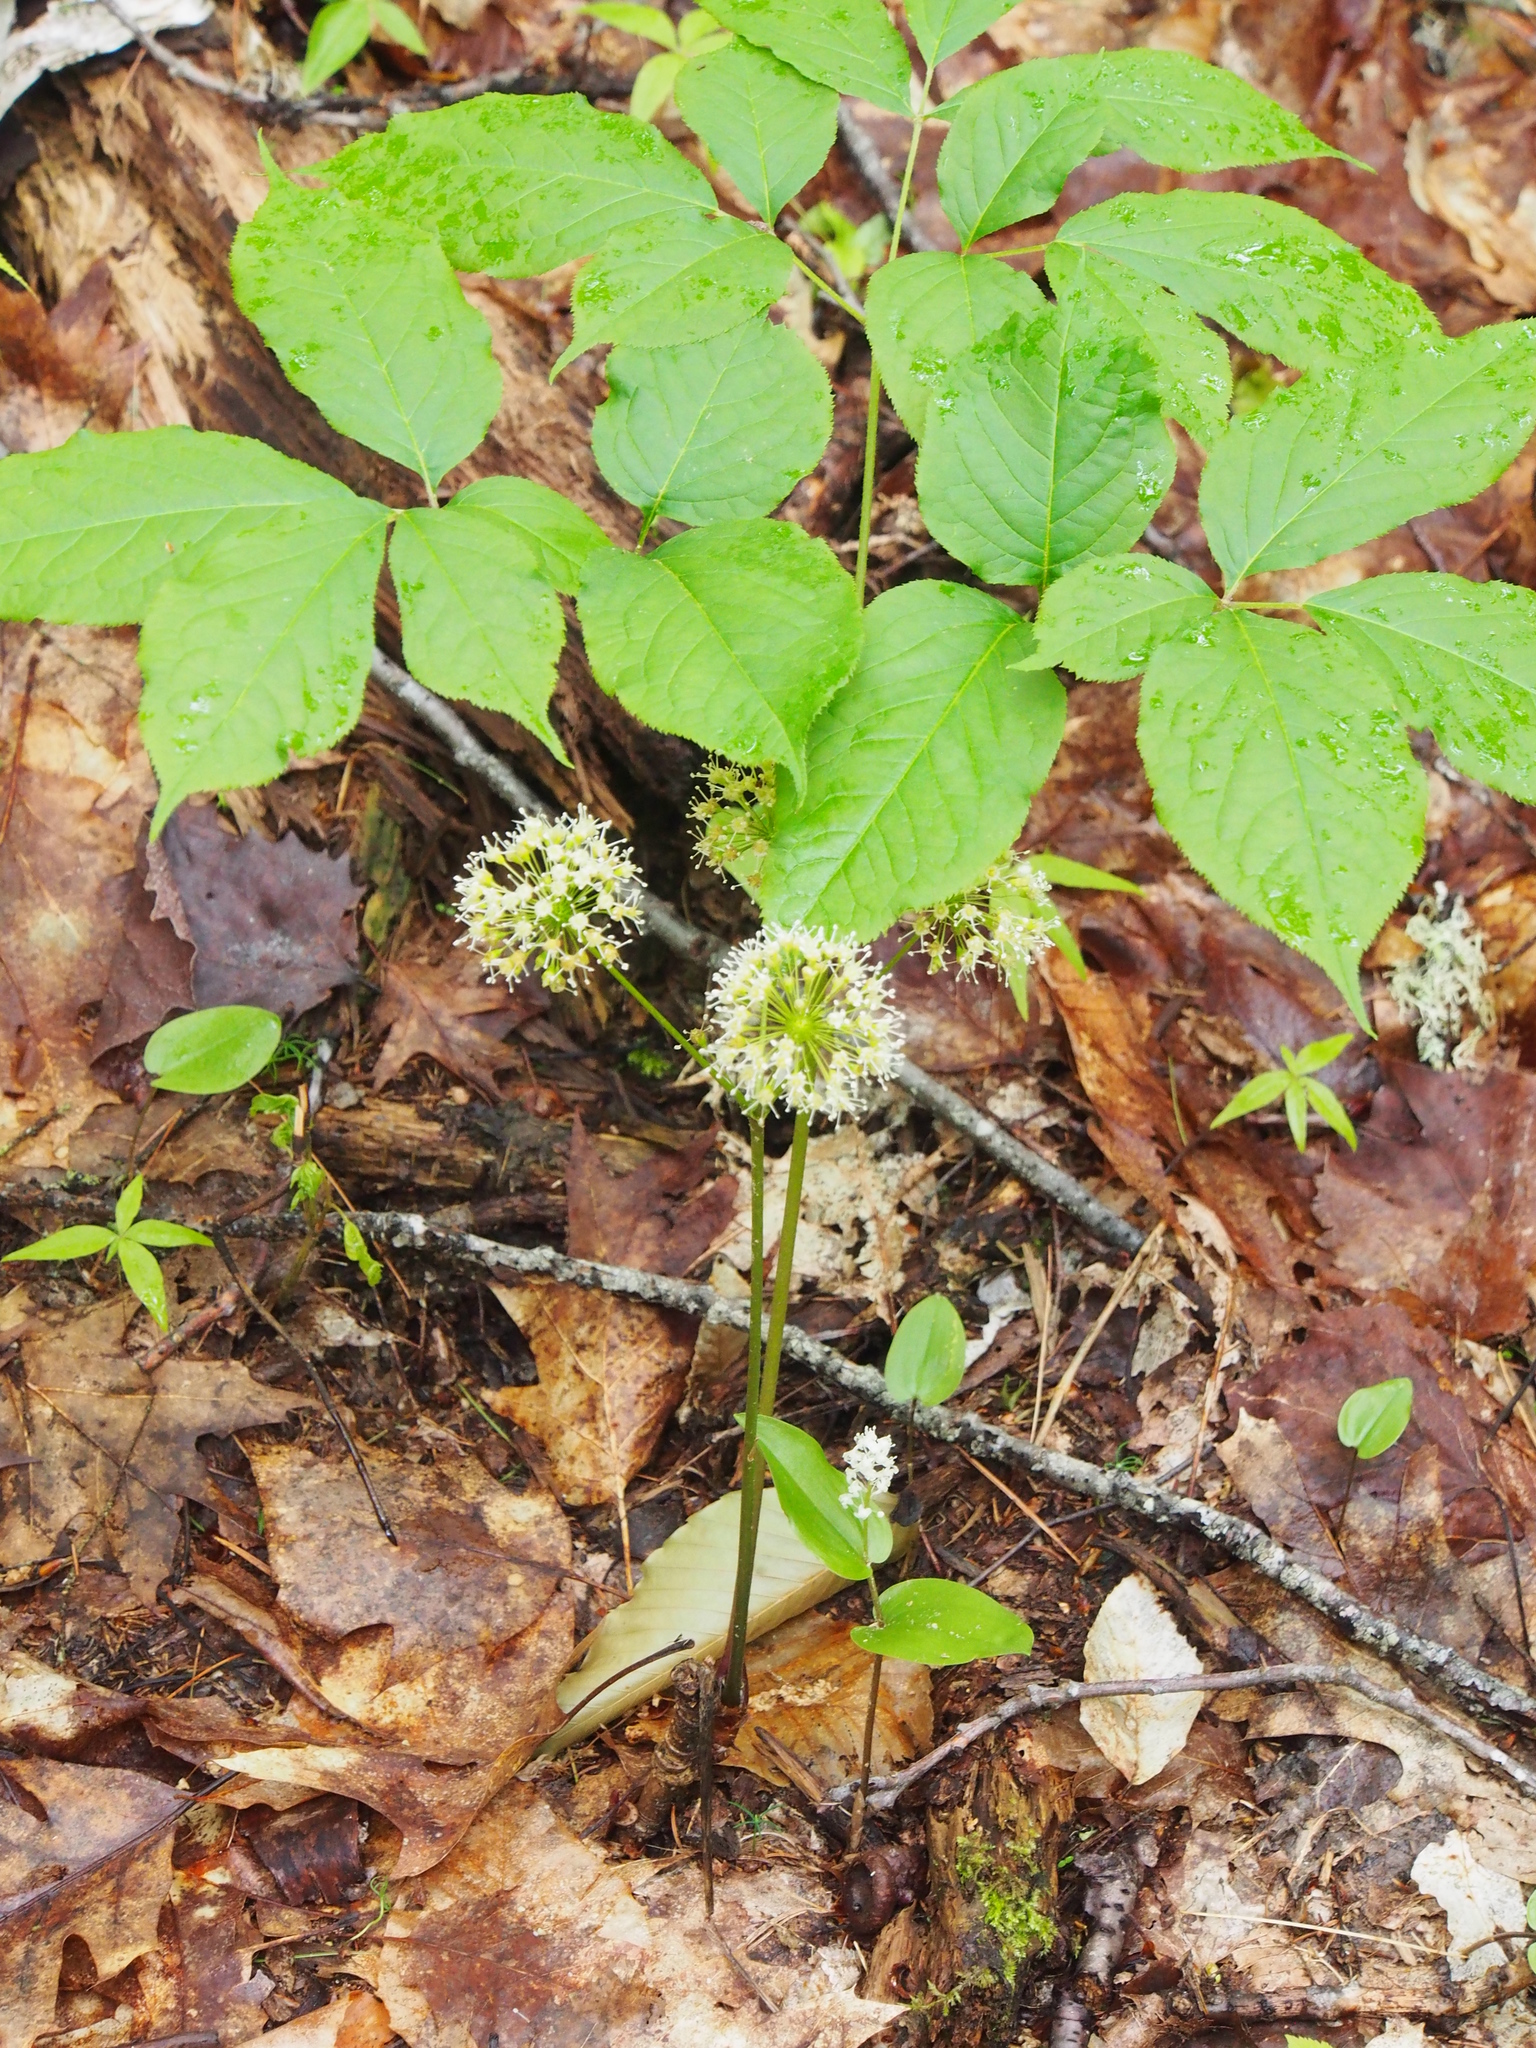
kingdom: Plantae
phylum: Tracheophyta
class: Magnoliopsida
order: Apiales
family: Araliaceae
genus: Aralia
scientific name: Aralia nudicaulis
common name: Wild sarsaparilla
